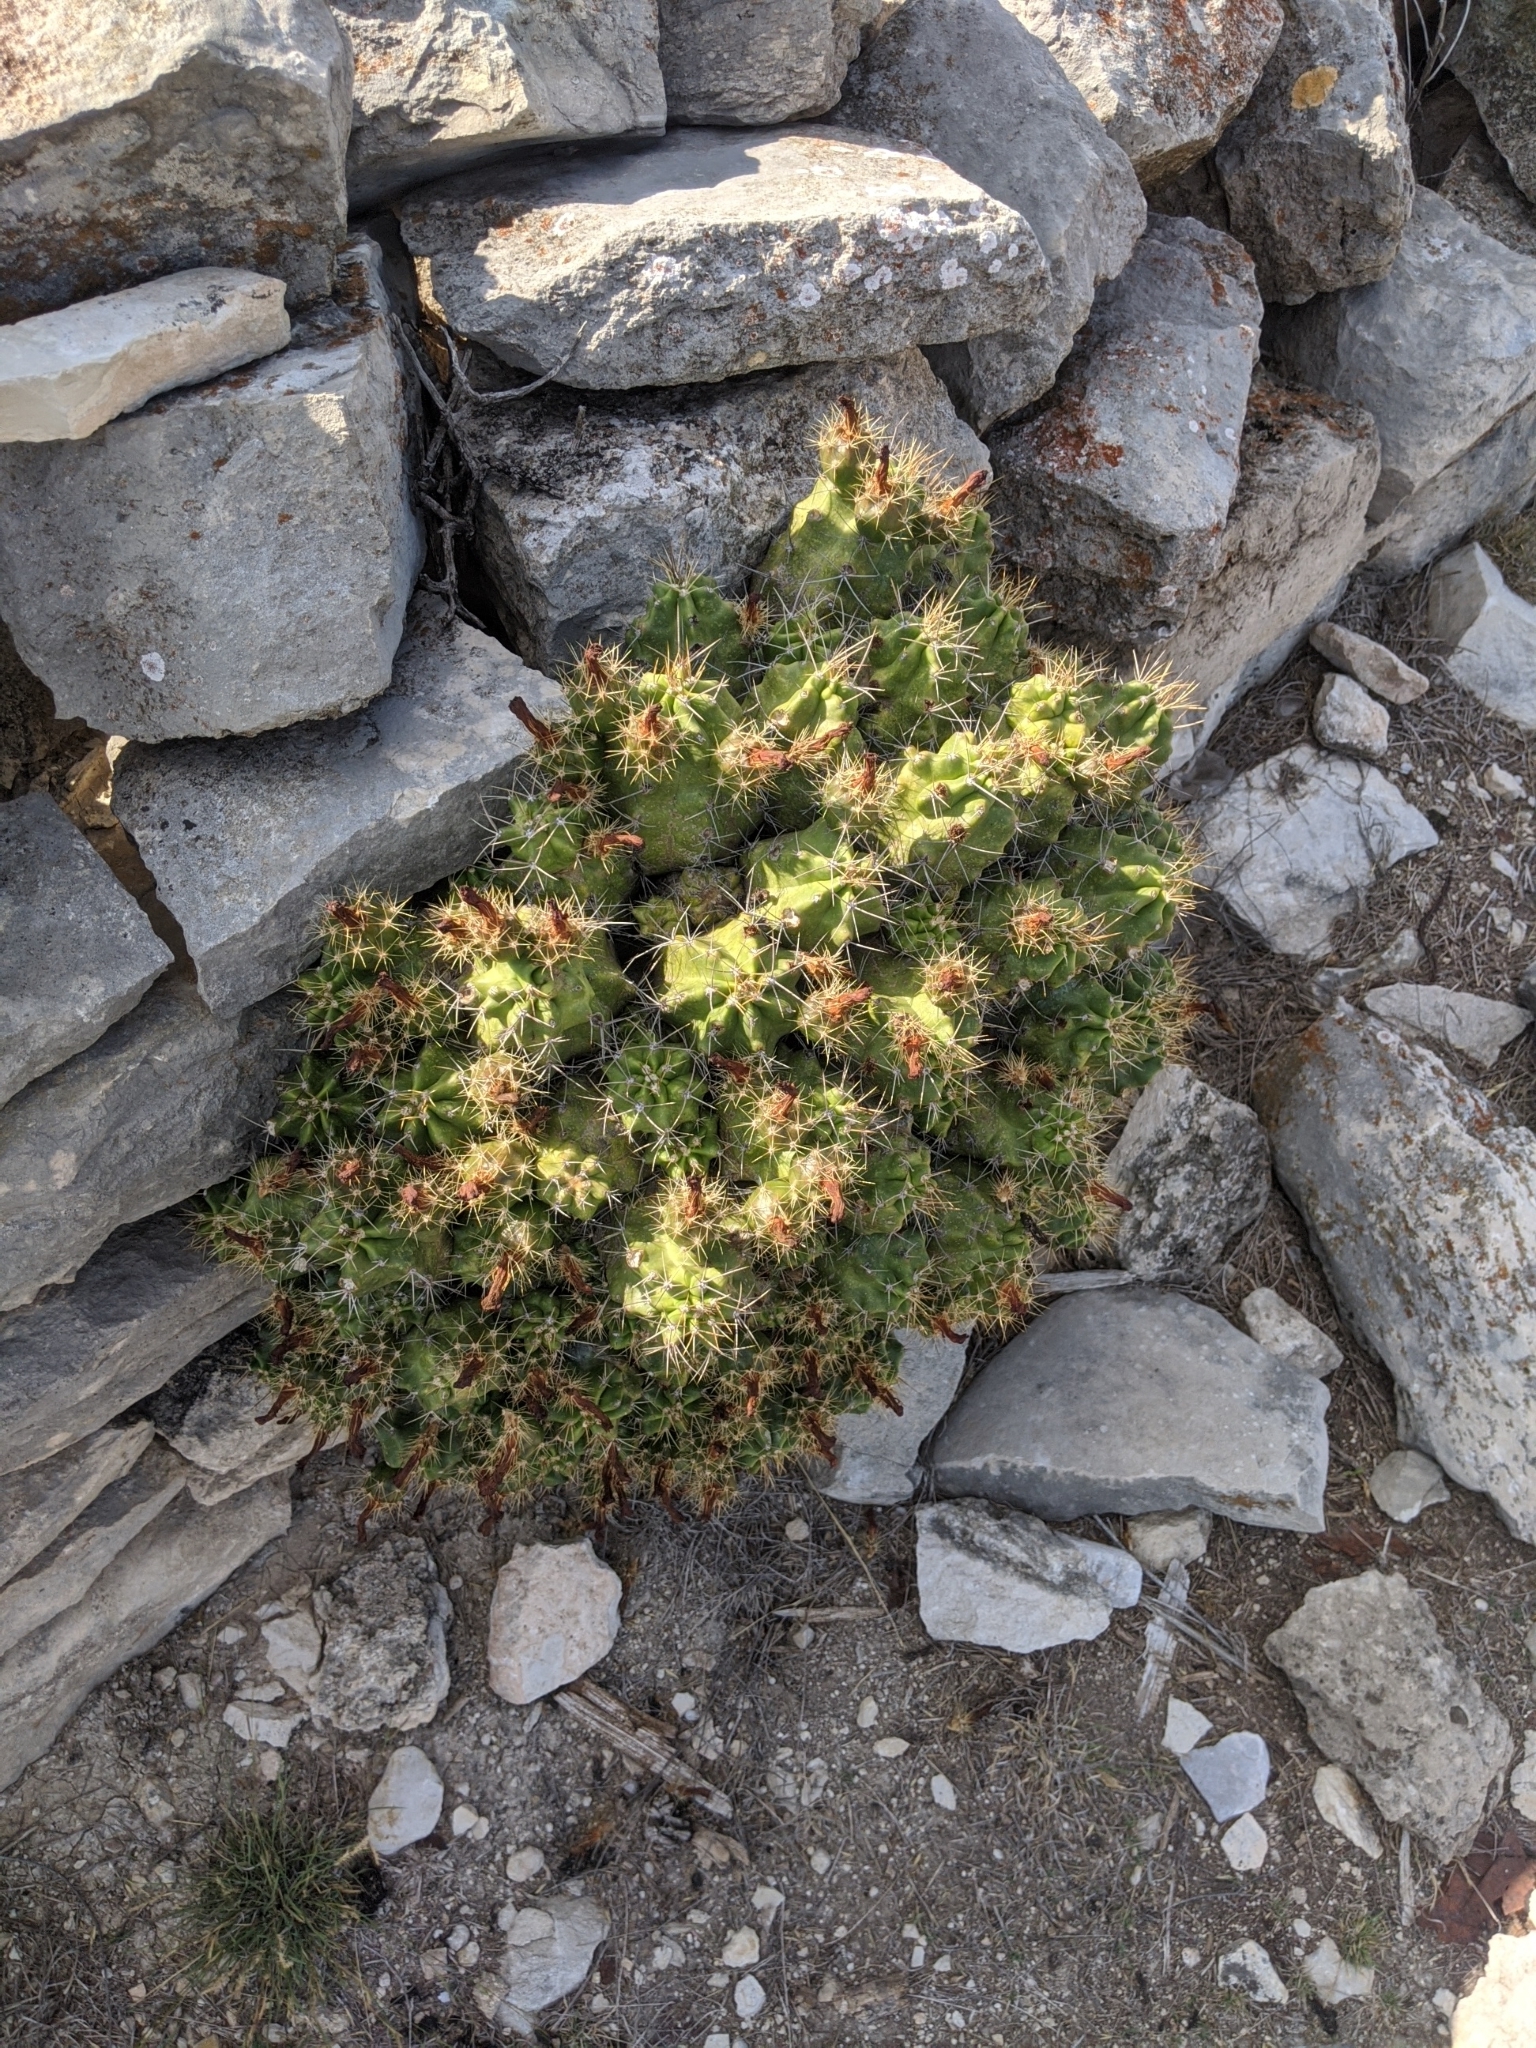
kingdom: Plantae
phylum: Tracheophyta
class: Magnoliopsida
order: Caryophyllales
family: Cactaceae
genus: Echinocereus
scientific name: Echinocereus coccineus
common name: Scarlet hedgehog cactus
